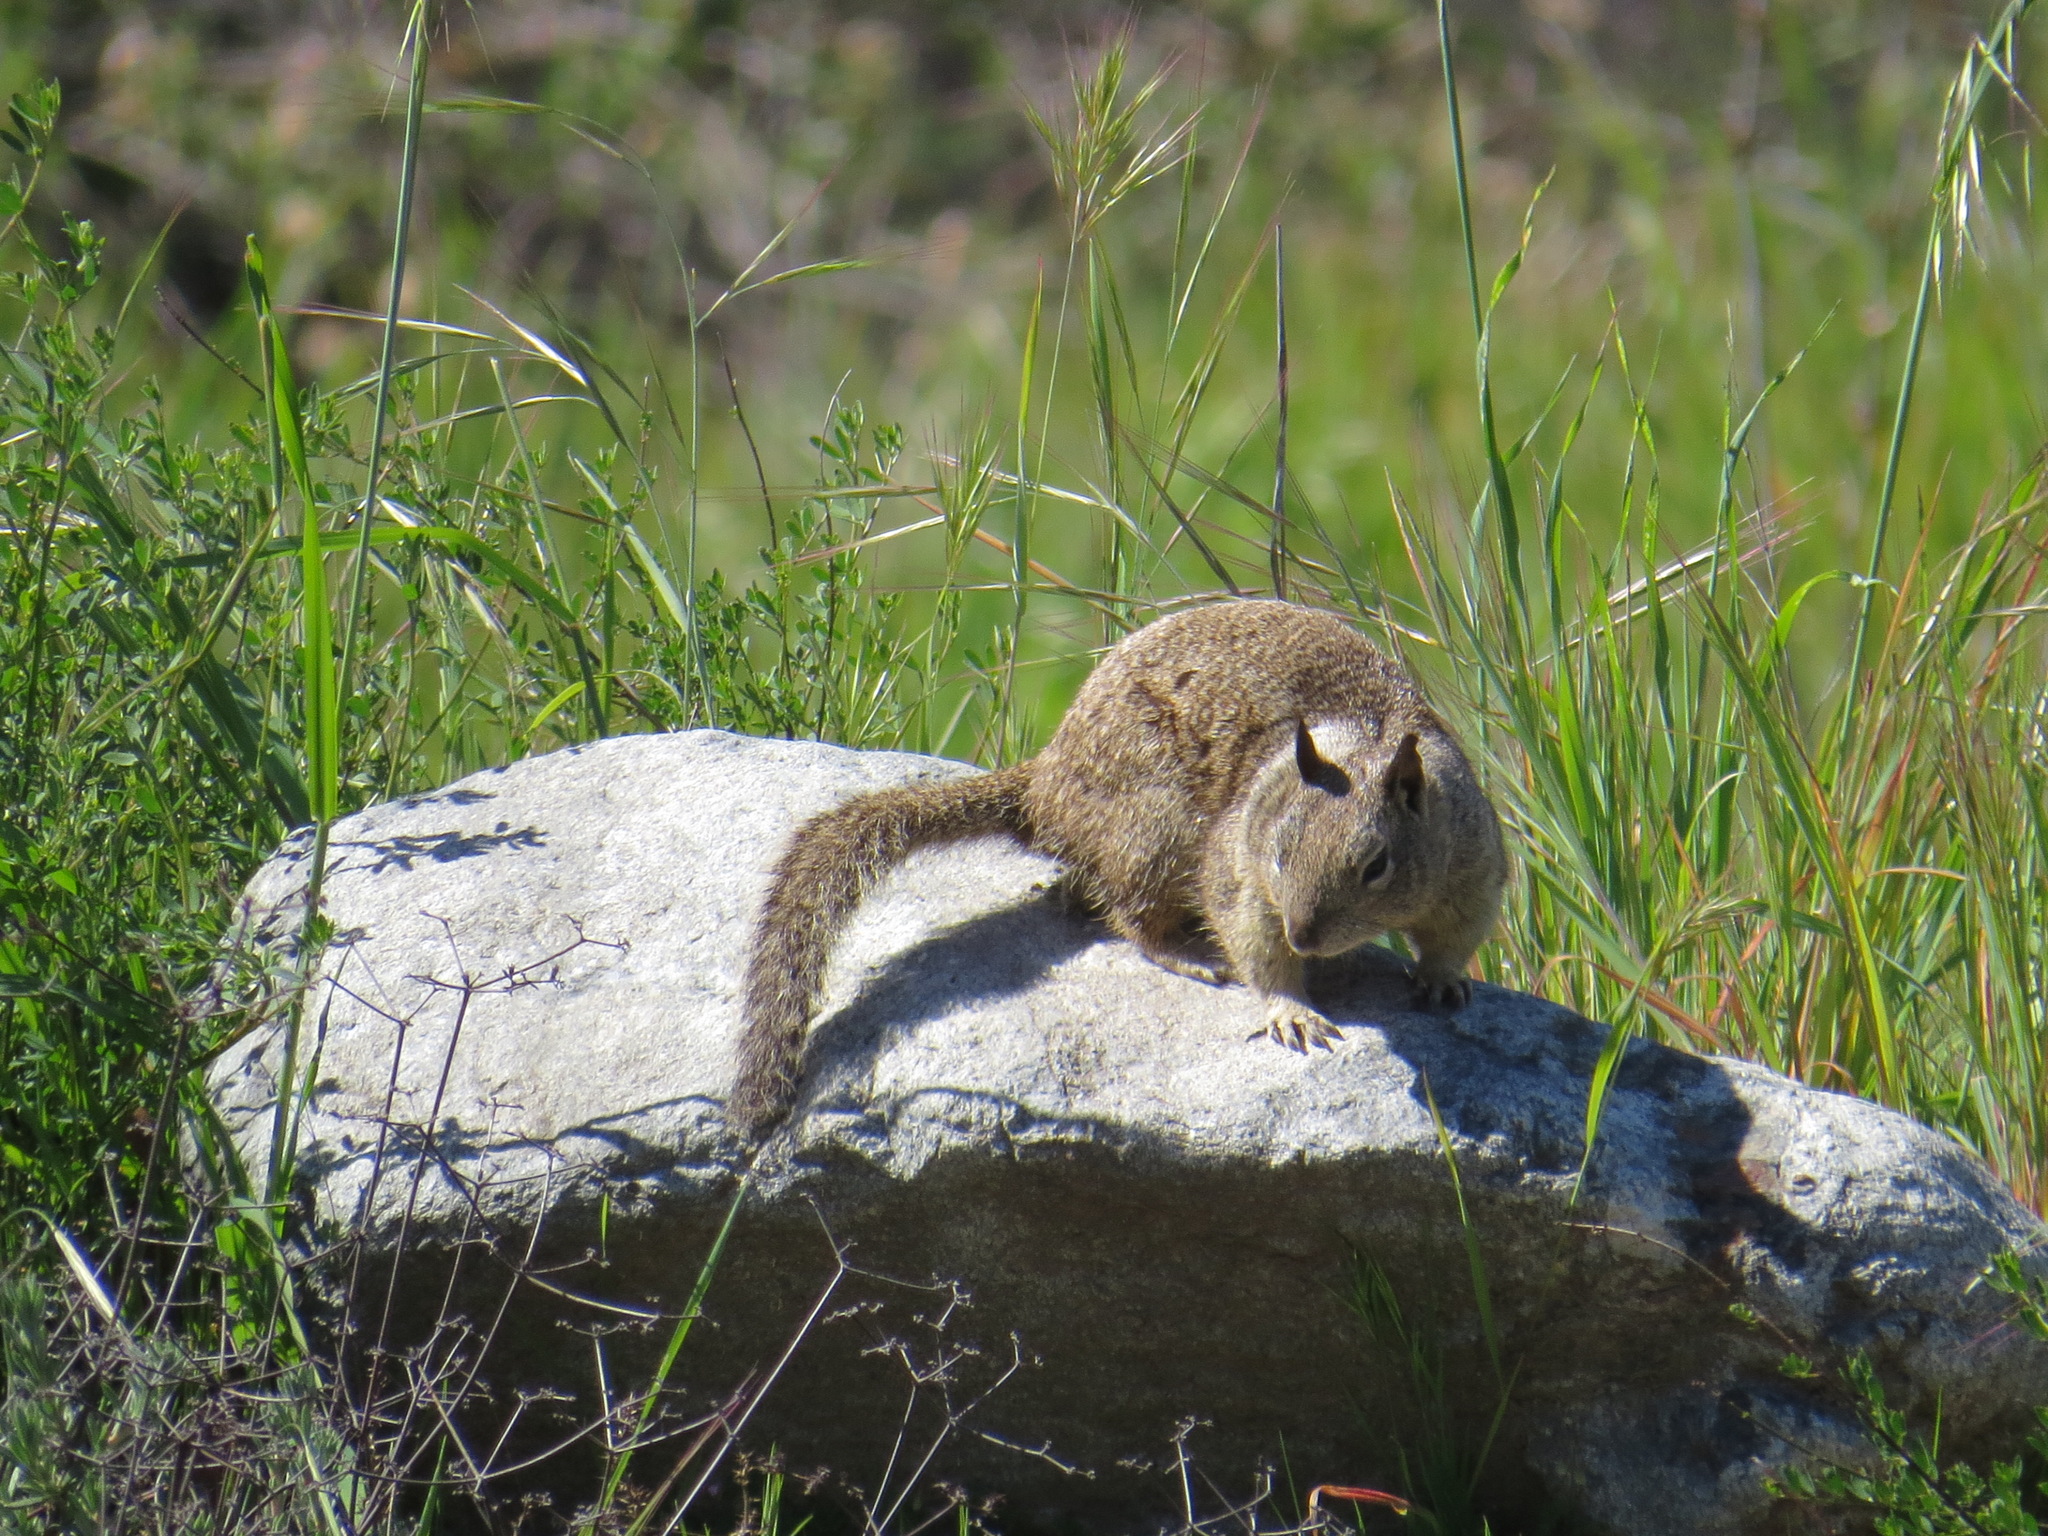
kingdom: Animalia
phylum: Chordata
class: Mammalia
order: Rodentia
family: Sciuridae
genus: Otospermophilus
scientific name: Otospermophilus beecheyi
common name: California ground squirrel
